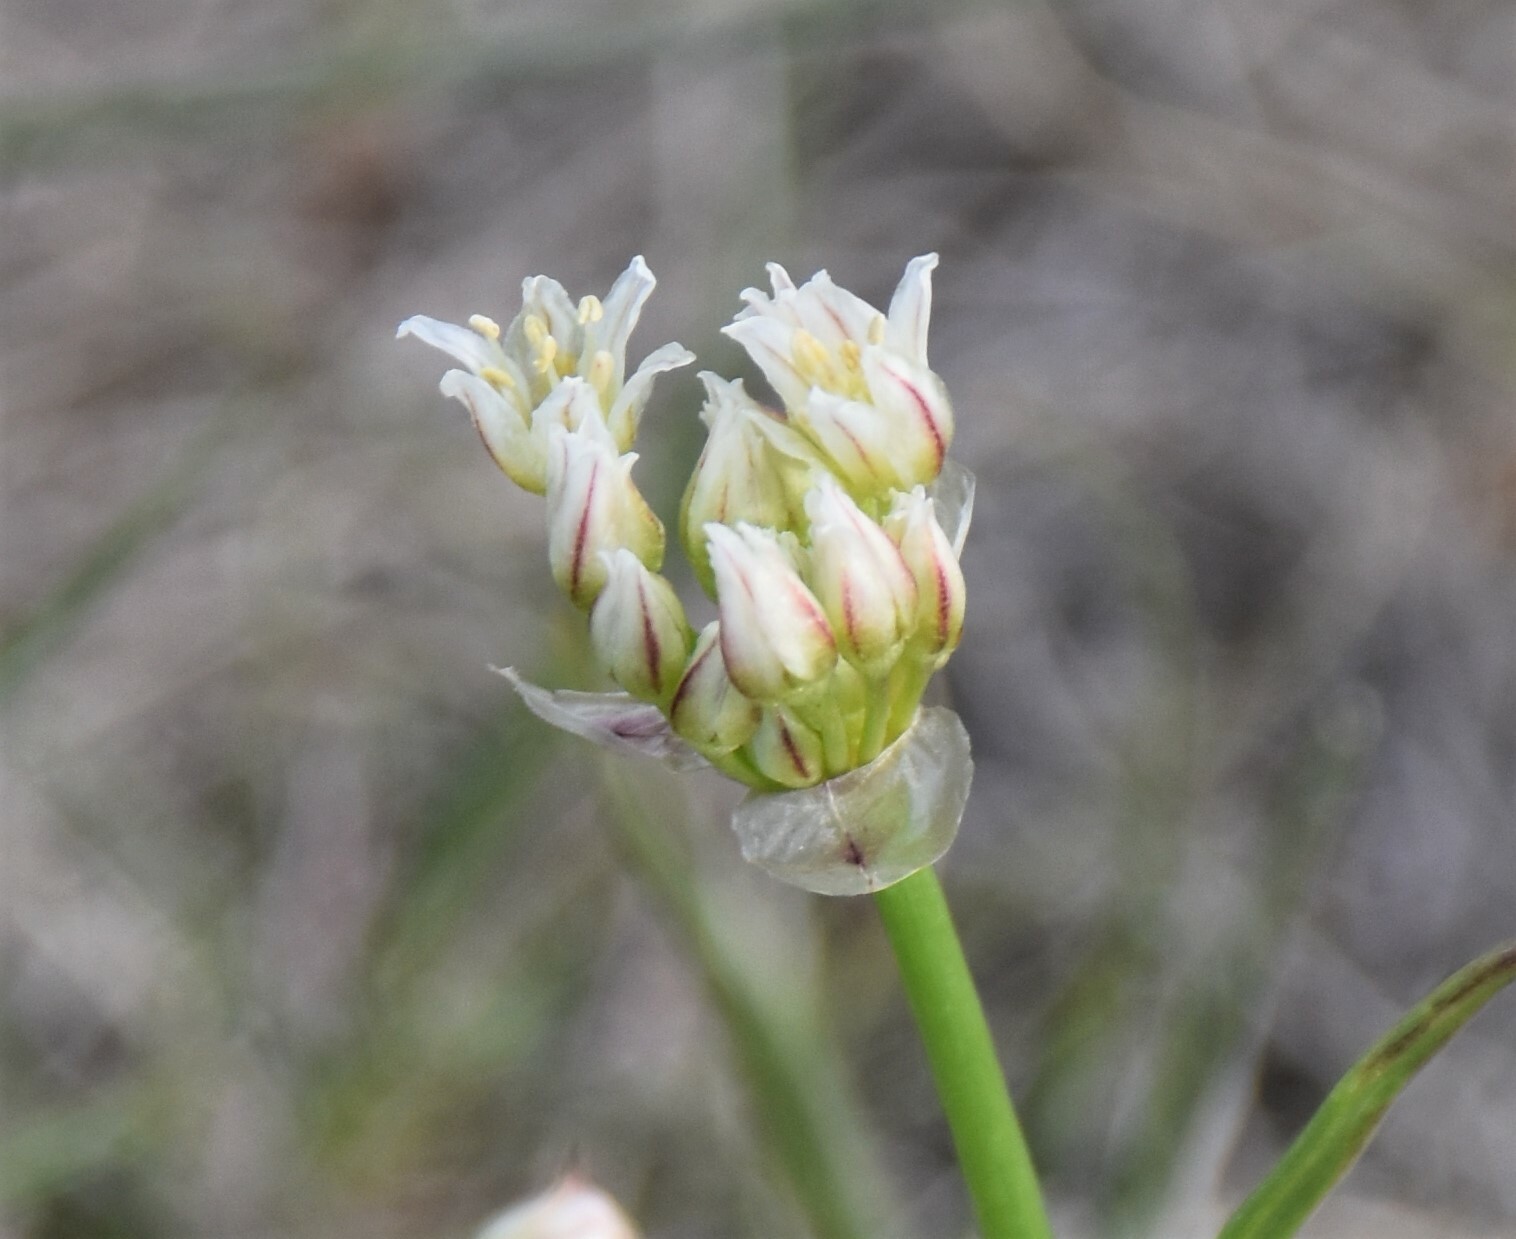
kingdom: Plantae
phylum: Tracheophyta
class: Liliopsida
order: Asparagales
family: Amaryllidaceae
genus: Allium
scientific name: Allium textile
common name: Prairie onion
